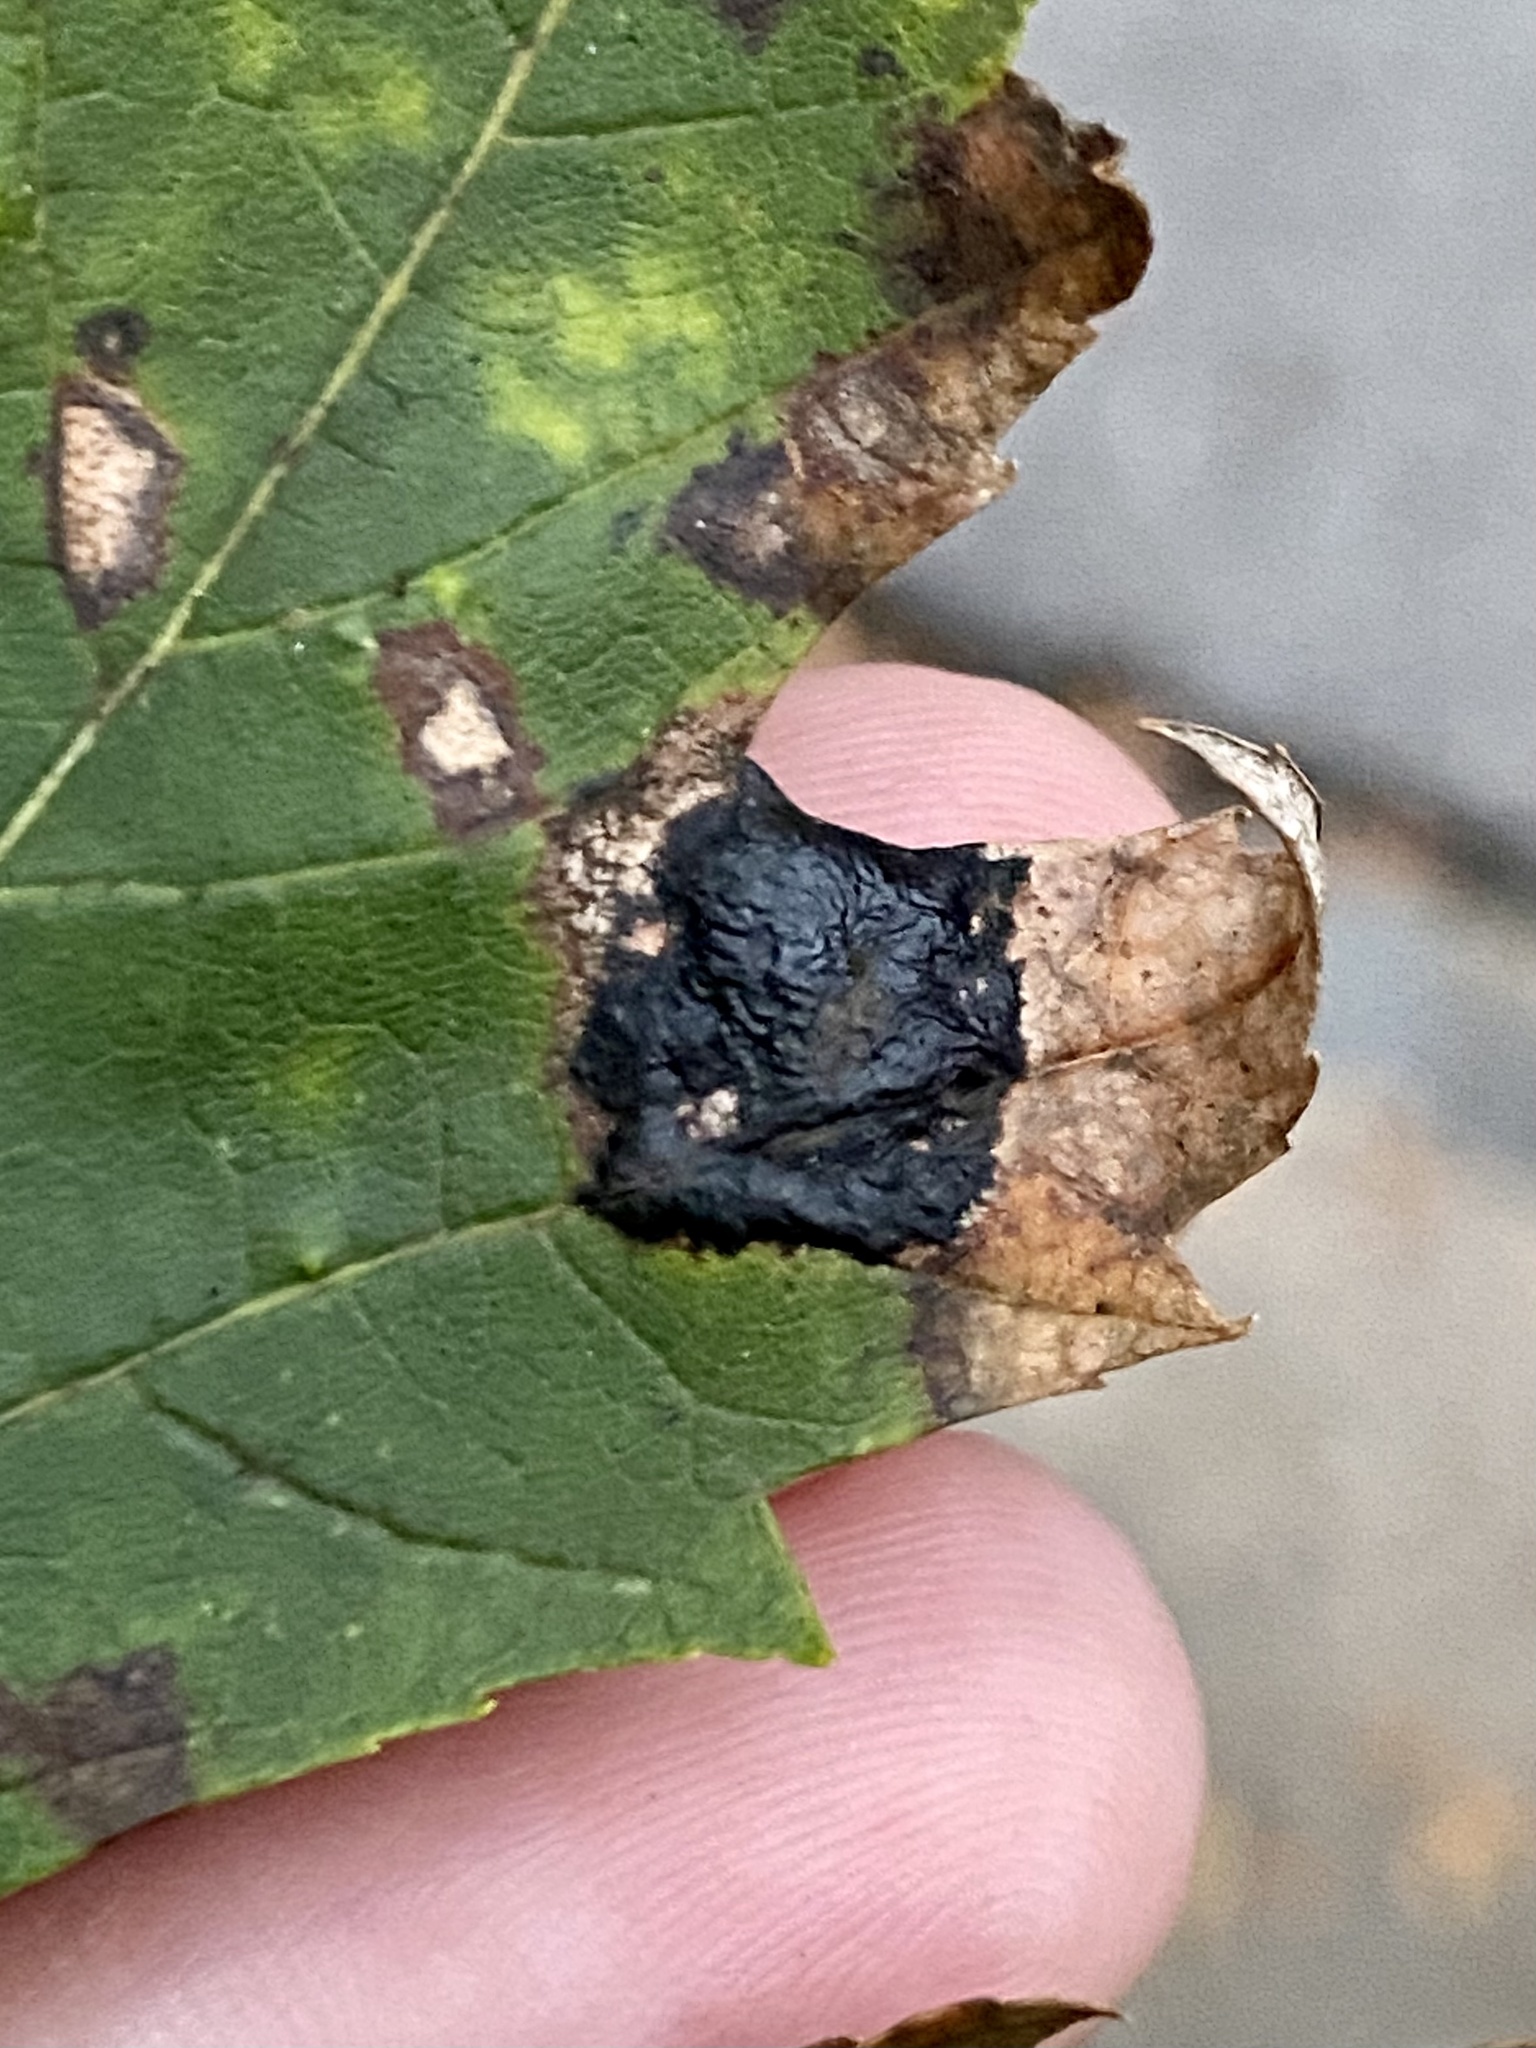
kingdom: Fungi
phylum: Ascomycota
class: Leotiomycetes
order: Rhytismatales
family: Rhytismataceae
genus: Rhytisma
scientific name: Rhytisma americanum
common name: American tar spot
